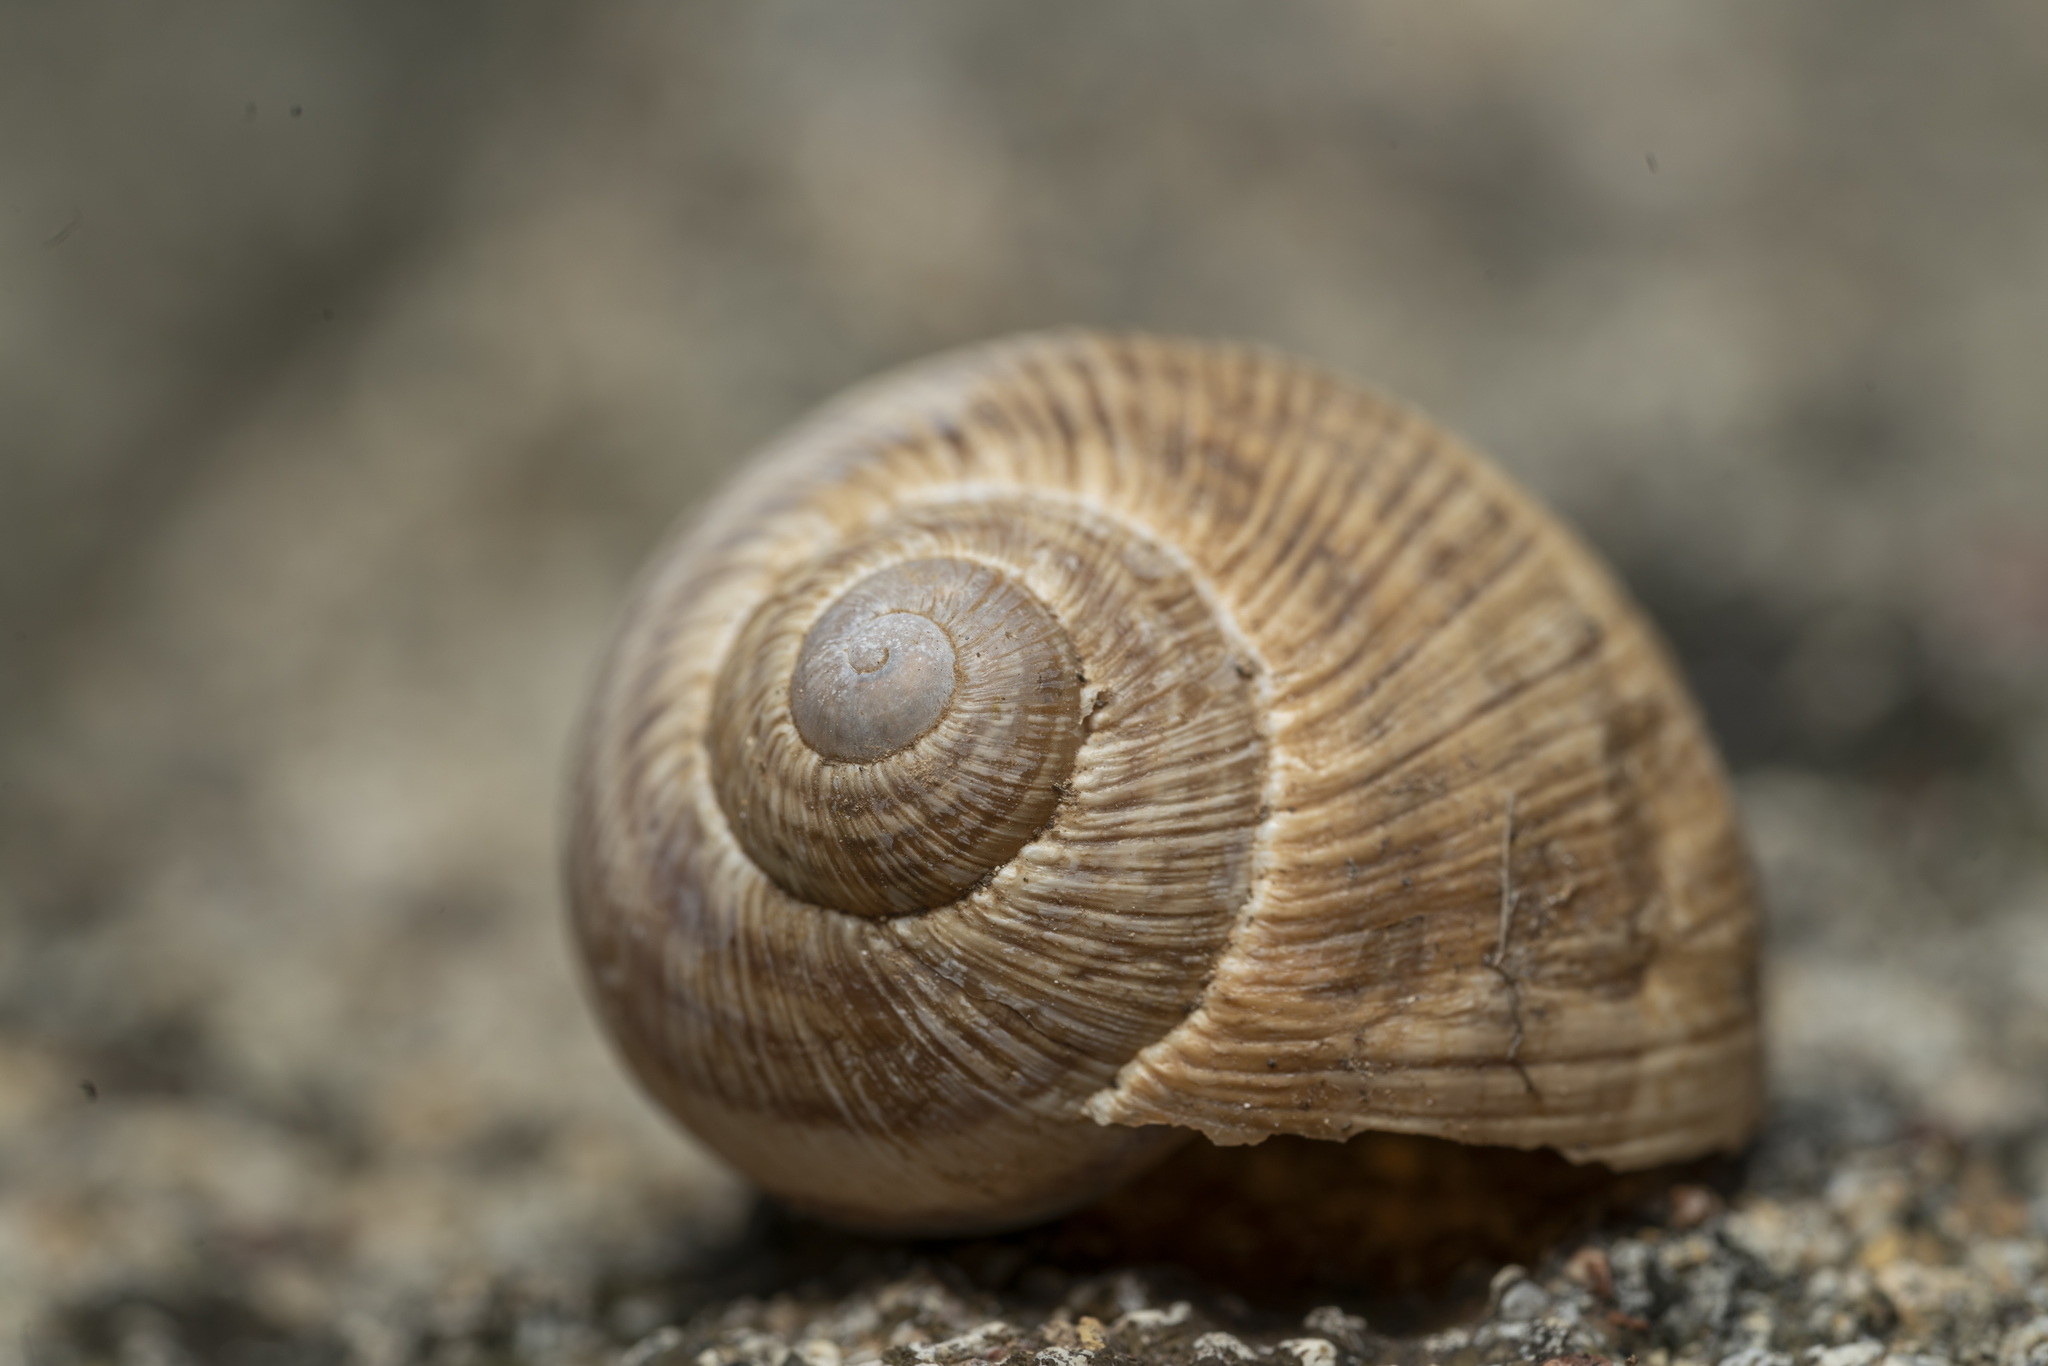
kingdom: Animalia
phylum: Mollusca
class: Gastropoda
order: Stylommatophora
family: Helicidae
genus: Helix
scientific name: Helix nucula
